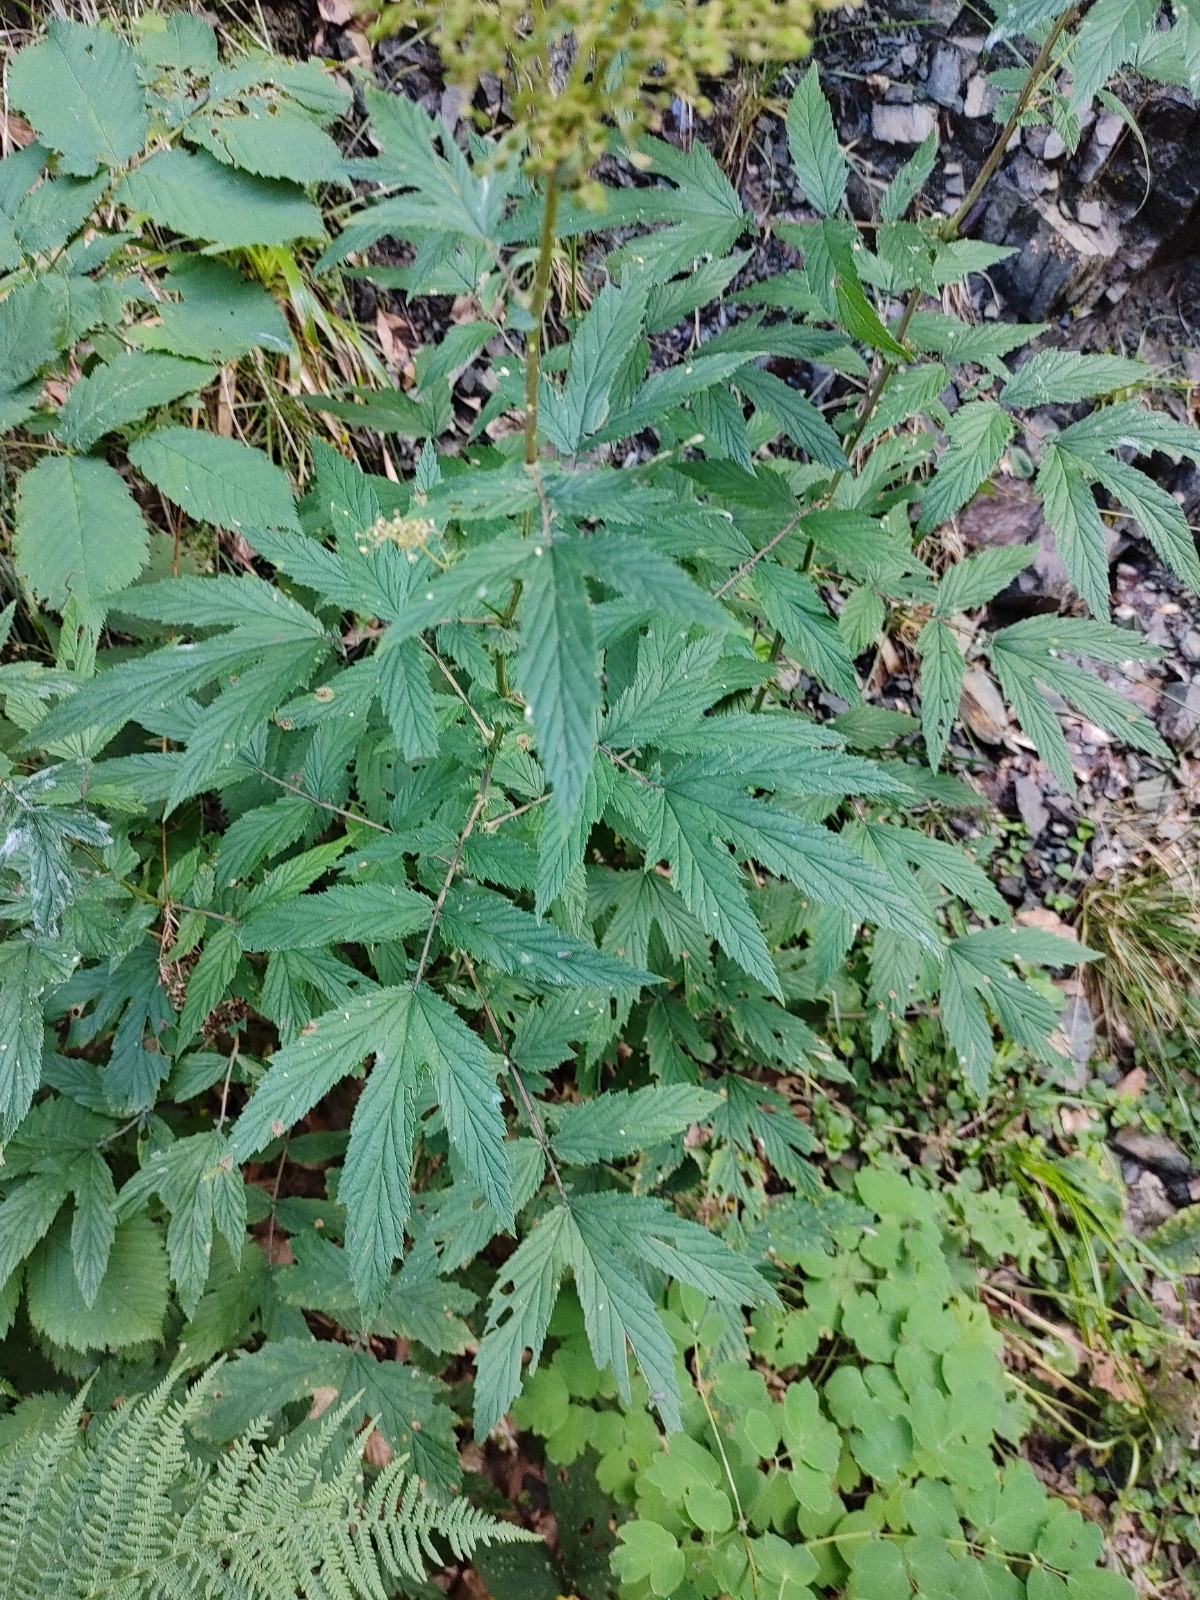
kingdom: Plantae
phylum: Tracheophyta
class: Magnoliopsida
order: Rosales
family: Rosaceae
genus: Filipendula
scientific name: Filipendula ulmaria
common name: Meadowsweet
